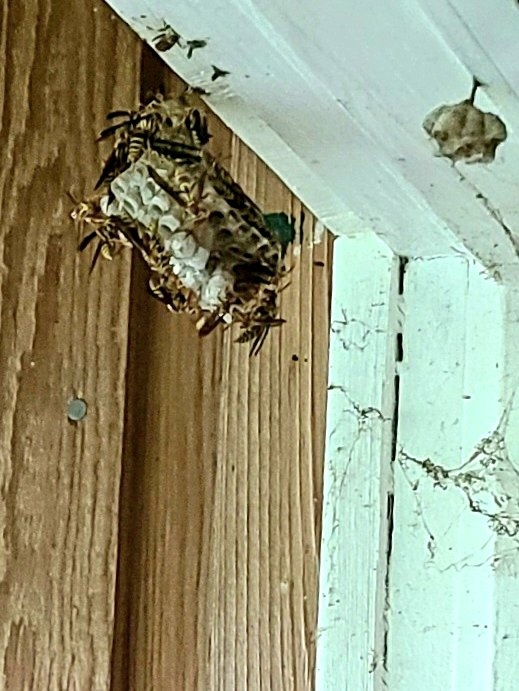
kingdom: Animalia
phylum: Arthropoda
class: Insecta
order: Hymenoptera
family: Eumenidae
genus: Polistes
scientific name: Polistes exclamans
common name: Paper wasp
